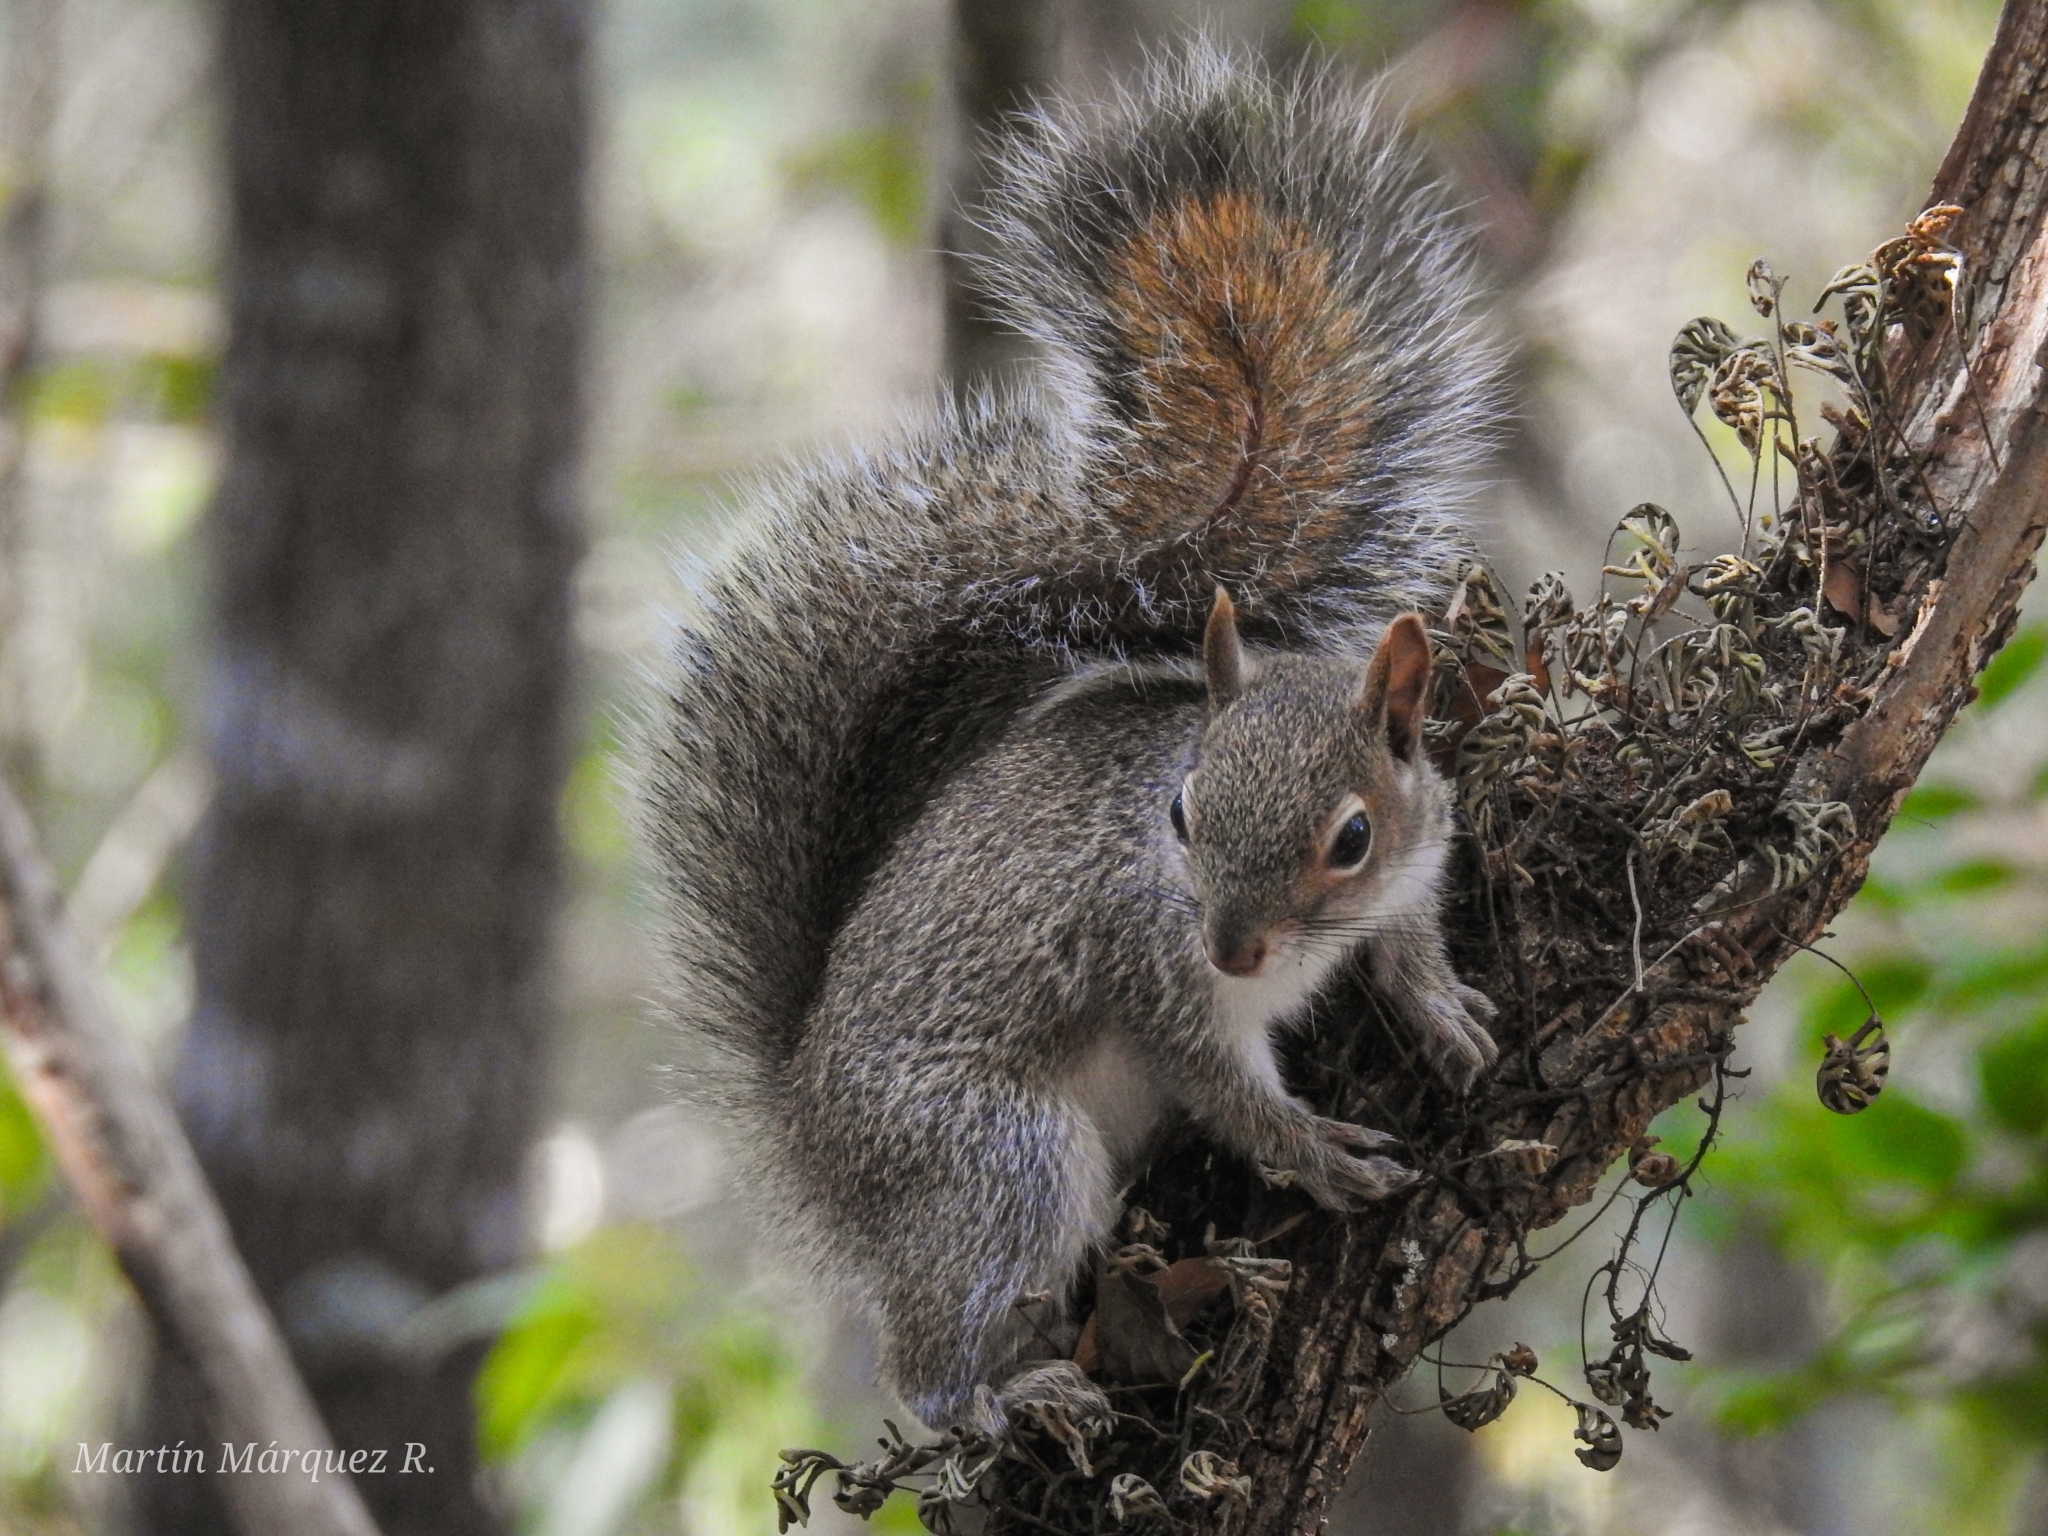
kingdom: Animalia
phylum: Chordata
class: Mammalia
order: Rodentia
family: Sciuridae
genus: Sciurus
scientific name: Sciurus alleni
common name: Allen's squirrel
